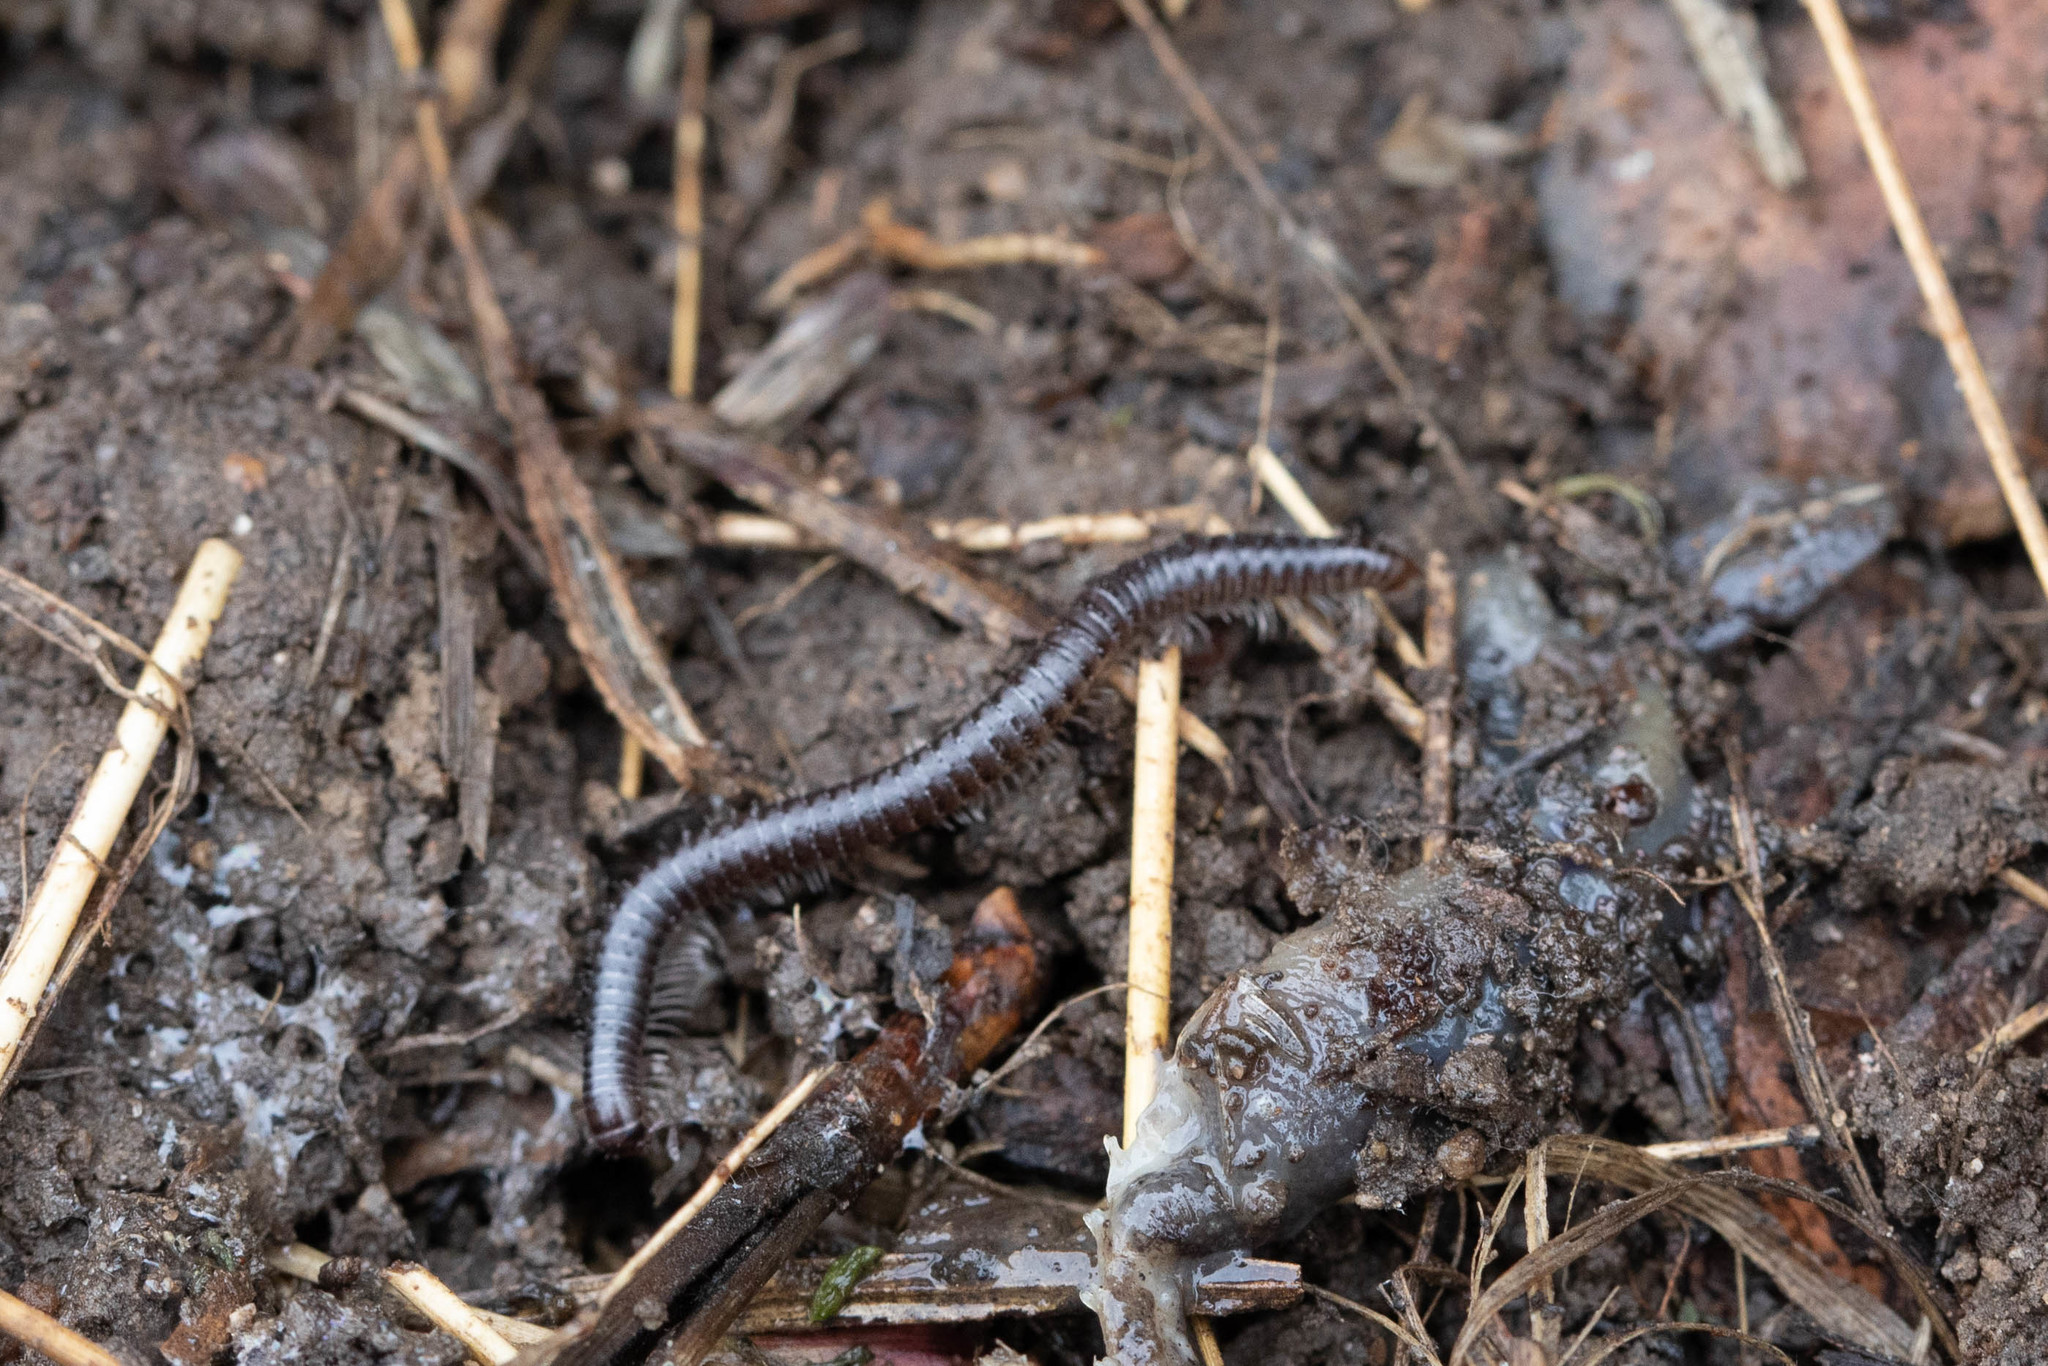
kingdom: Animalia
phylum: Arthropoda
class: Diplopoda
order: Julida
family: Julidae
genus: Ophyiulus
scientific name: Ophyiulus pilosus
